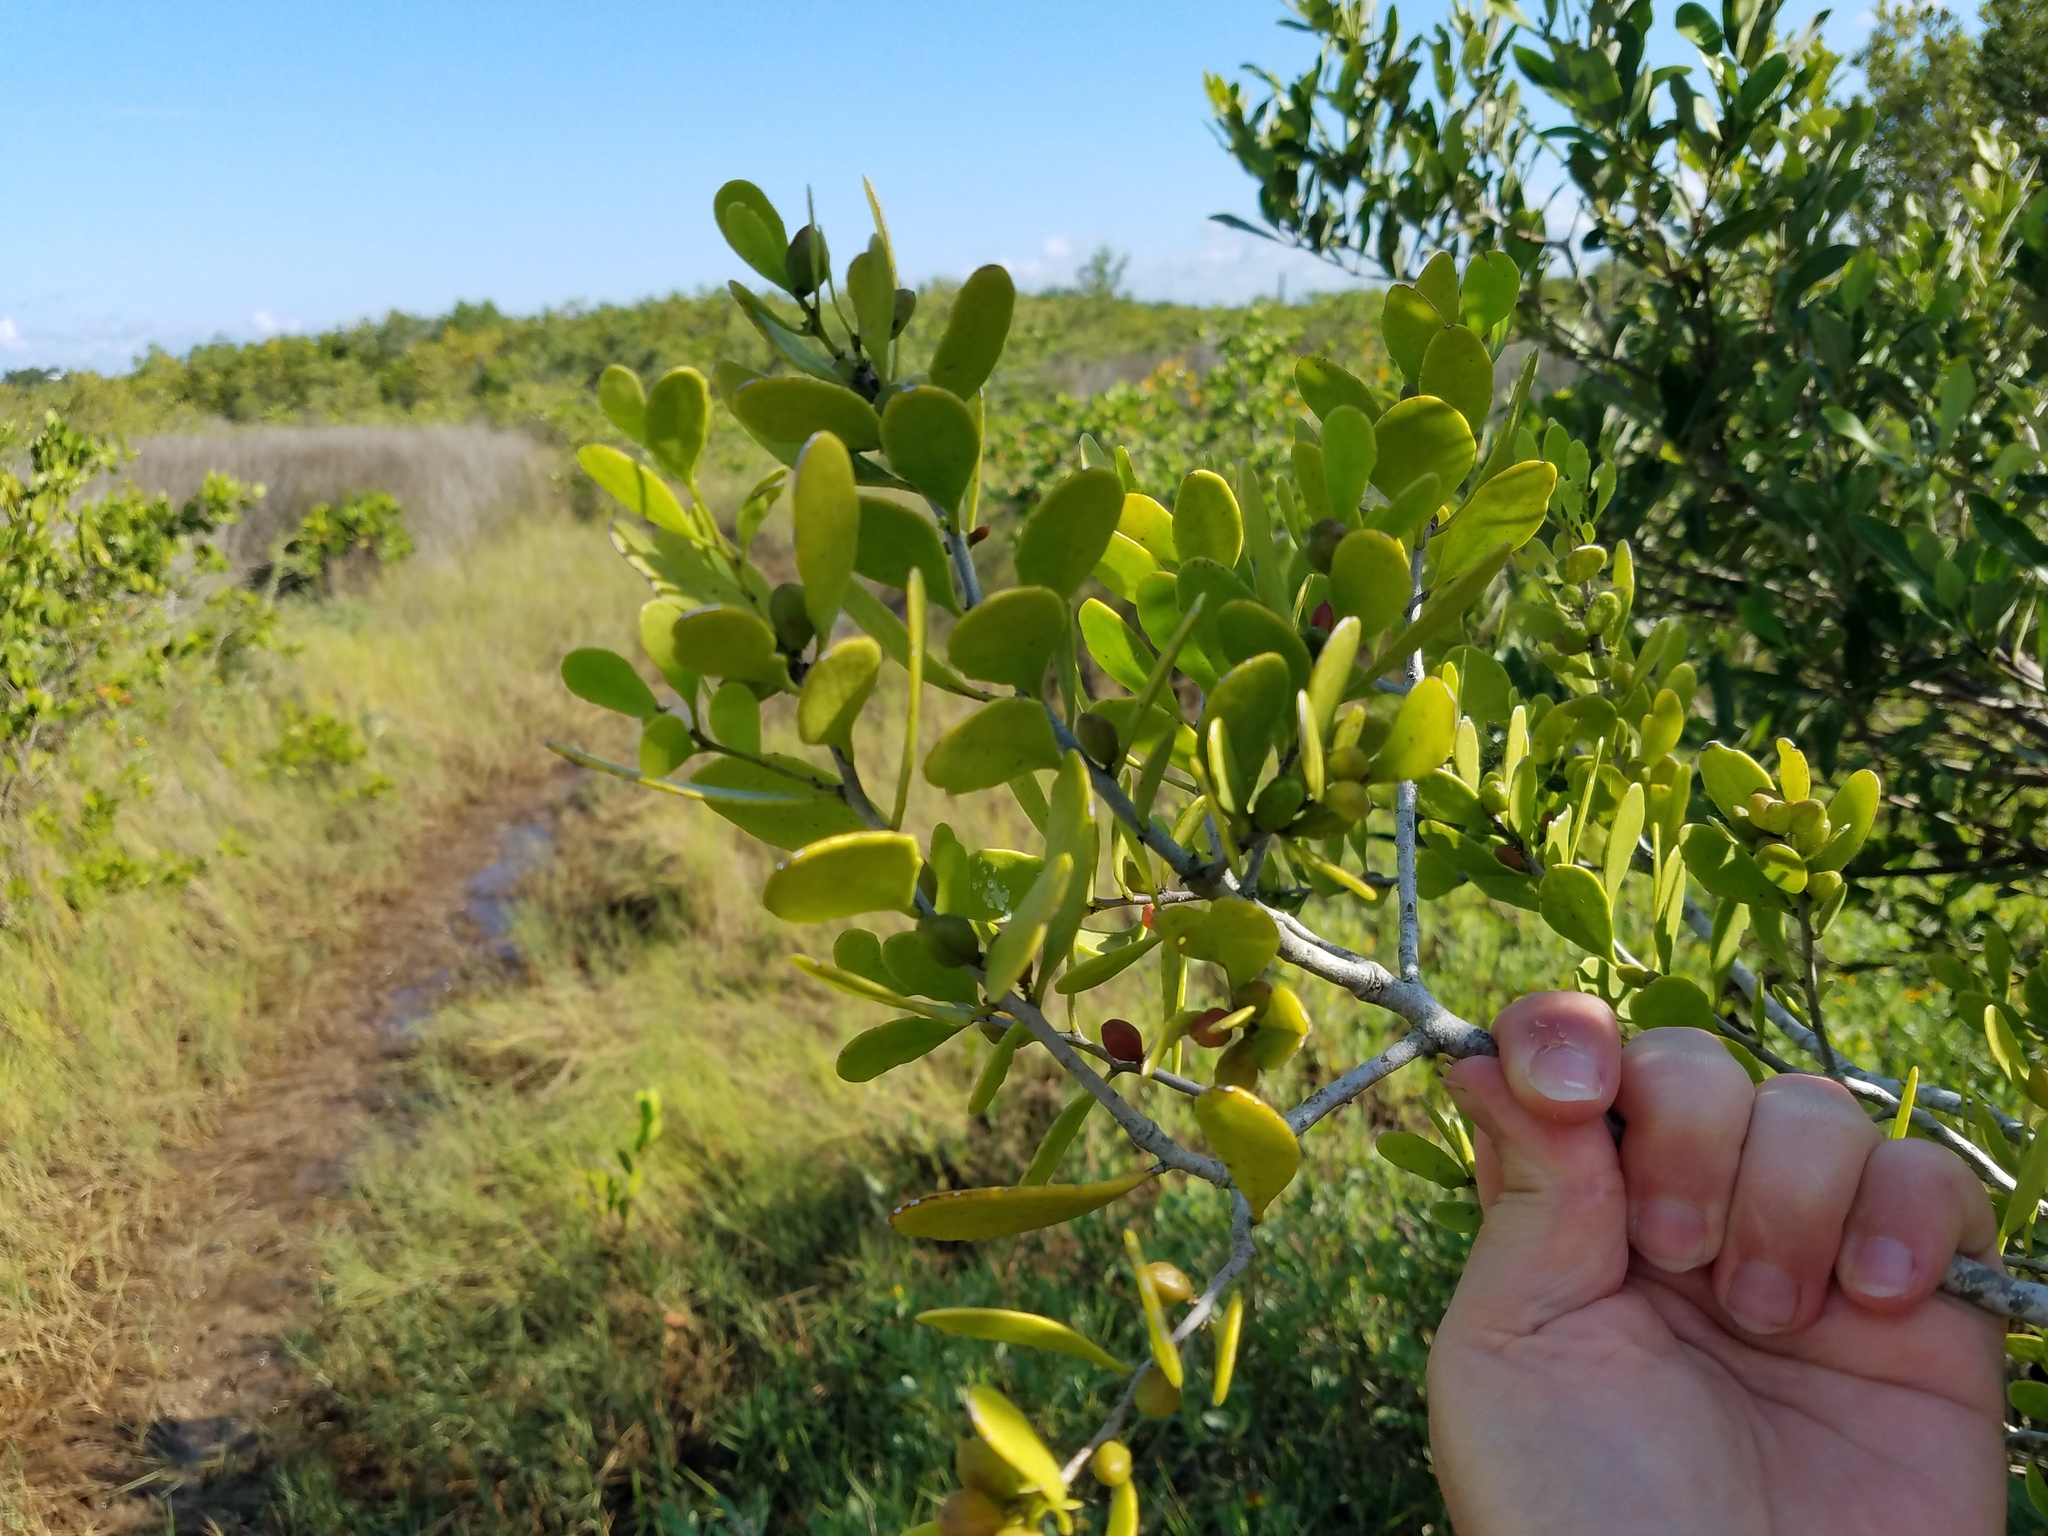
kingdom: Plantae
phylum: Tracheophyta
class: Magnoliopsida
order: Celastrales
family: Celastraceae
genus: Tricerma
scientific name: Tricerma phyllanthoides
